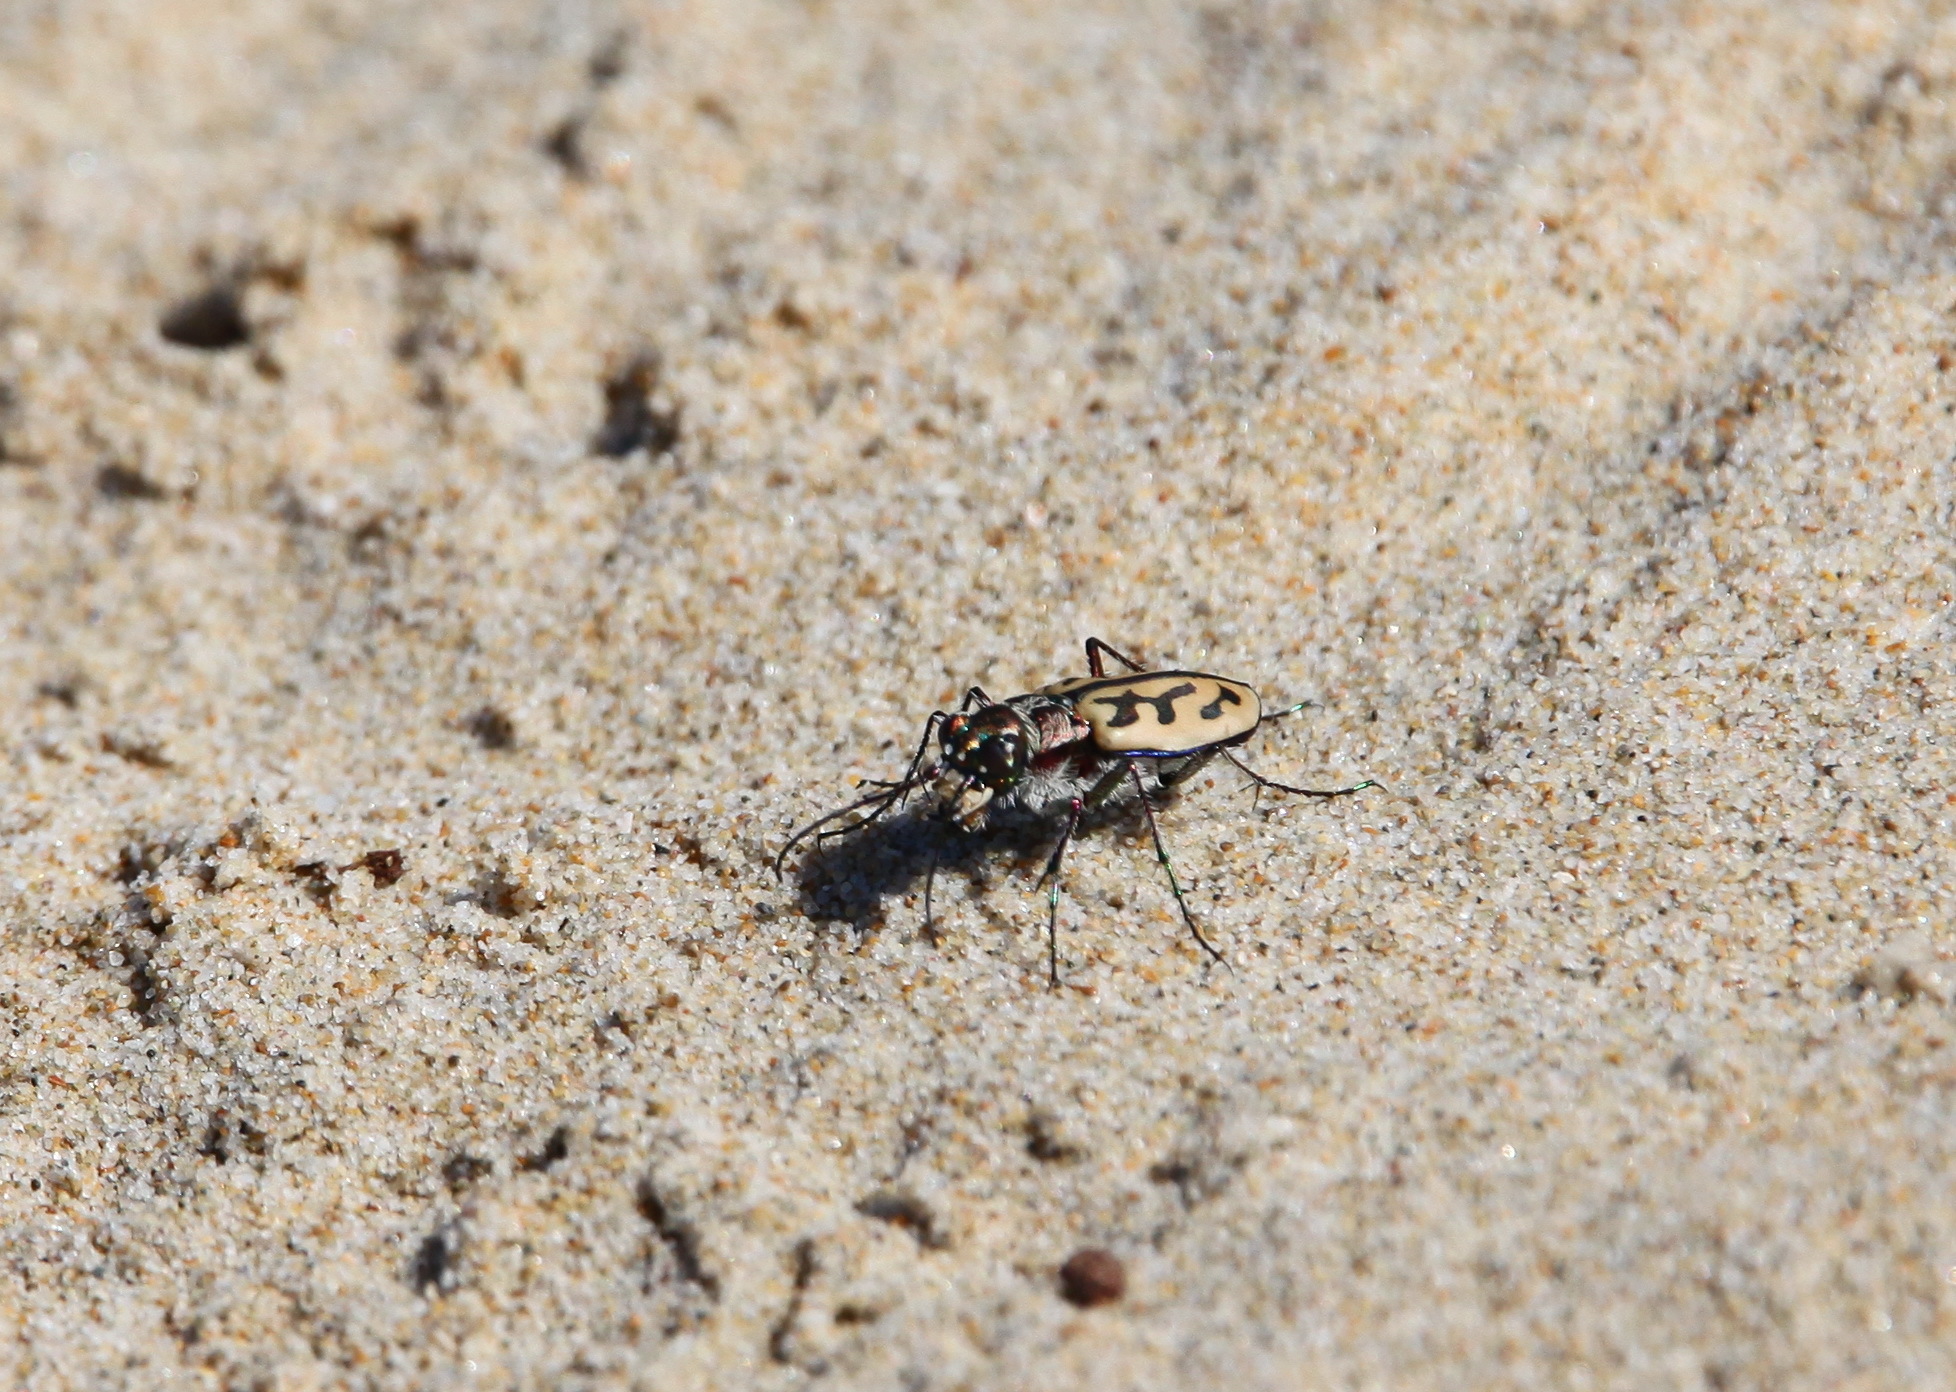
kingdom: Animalia
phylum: Arthropoda
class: Insecta
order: Coleoptera
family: Carabidae
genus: Lophyra
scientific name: Lophyra differens
